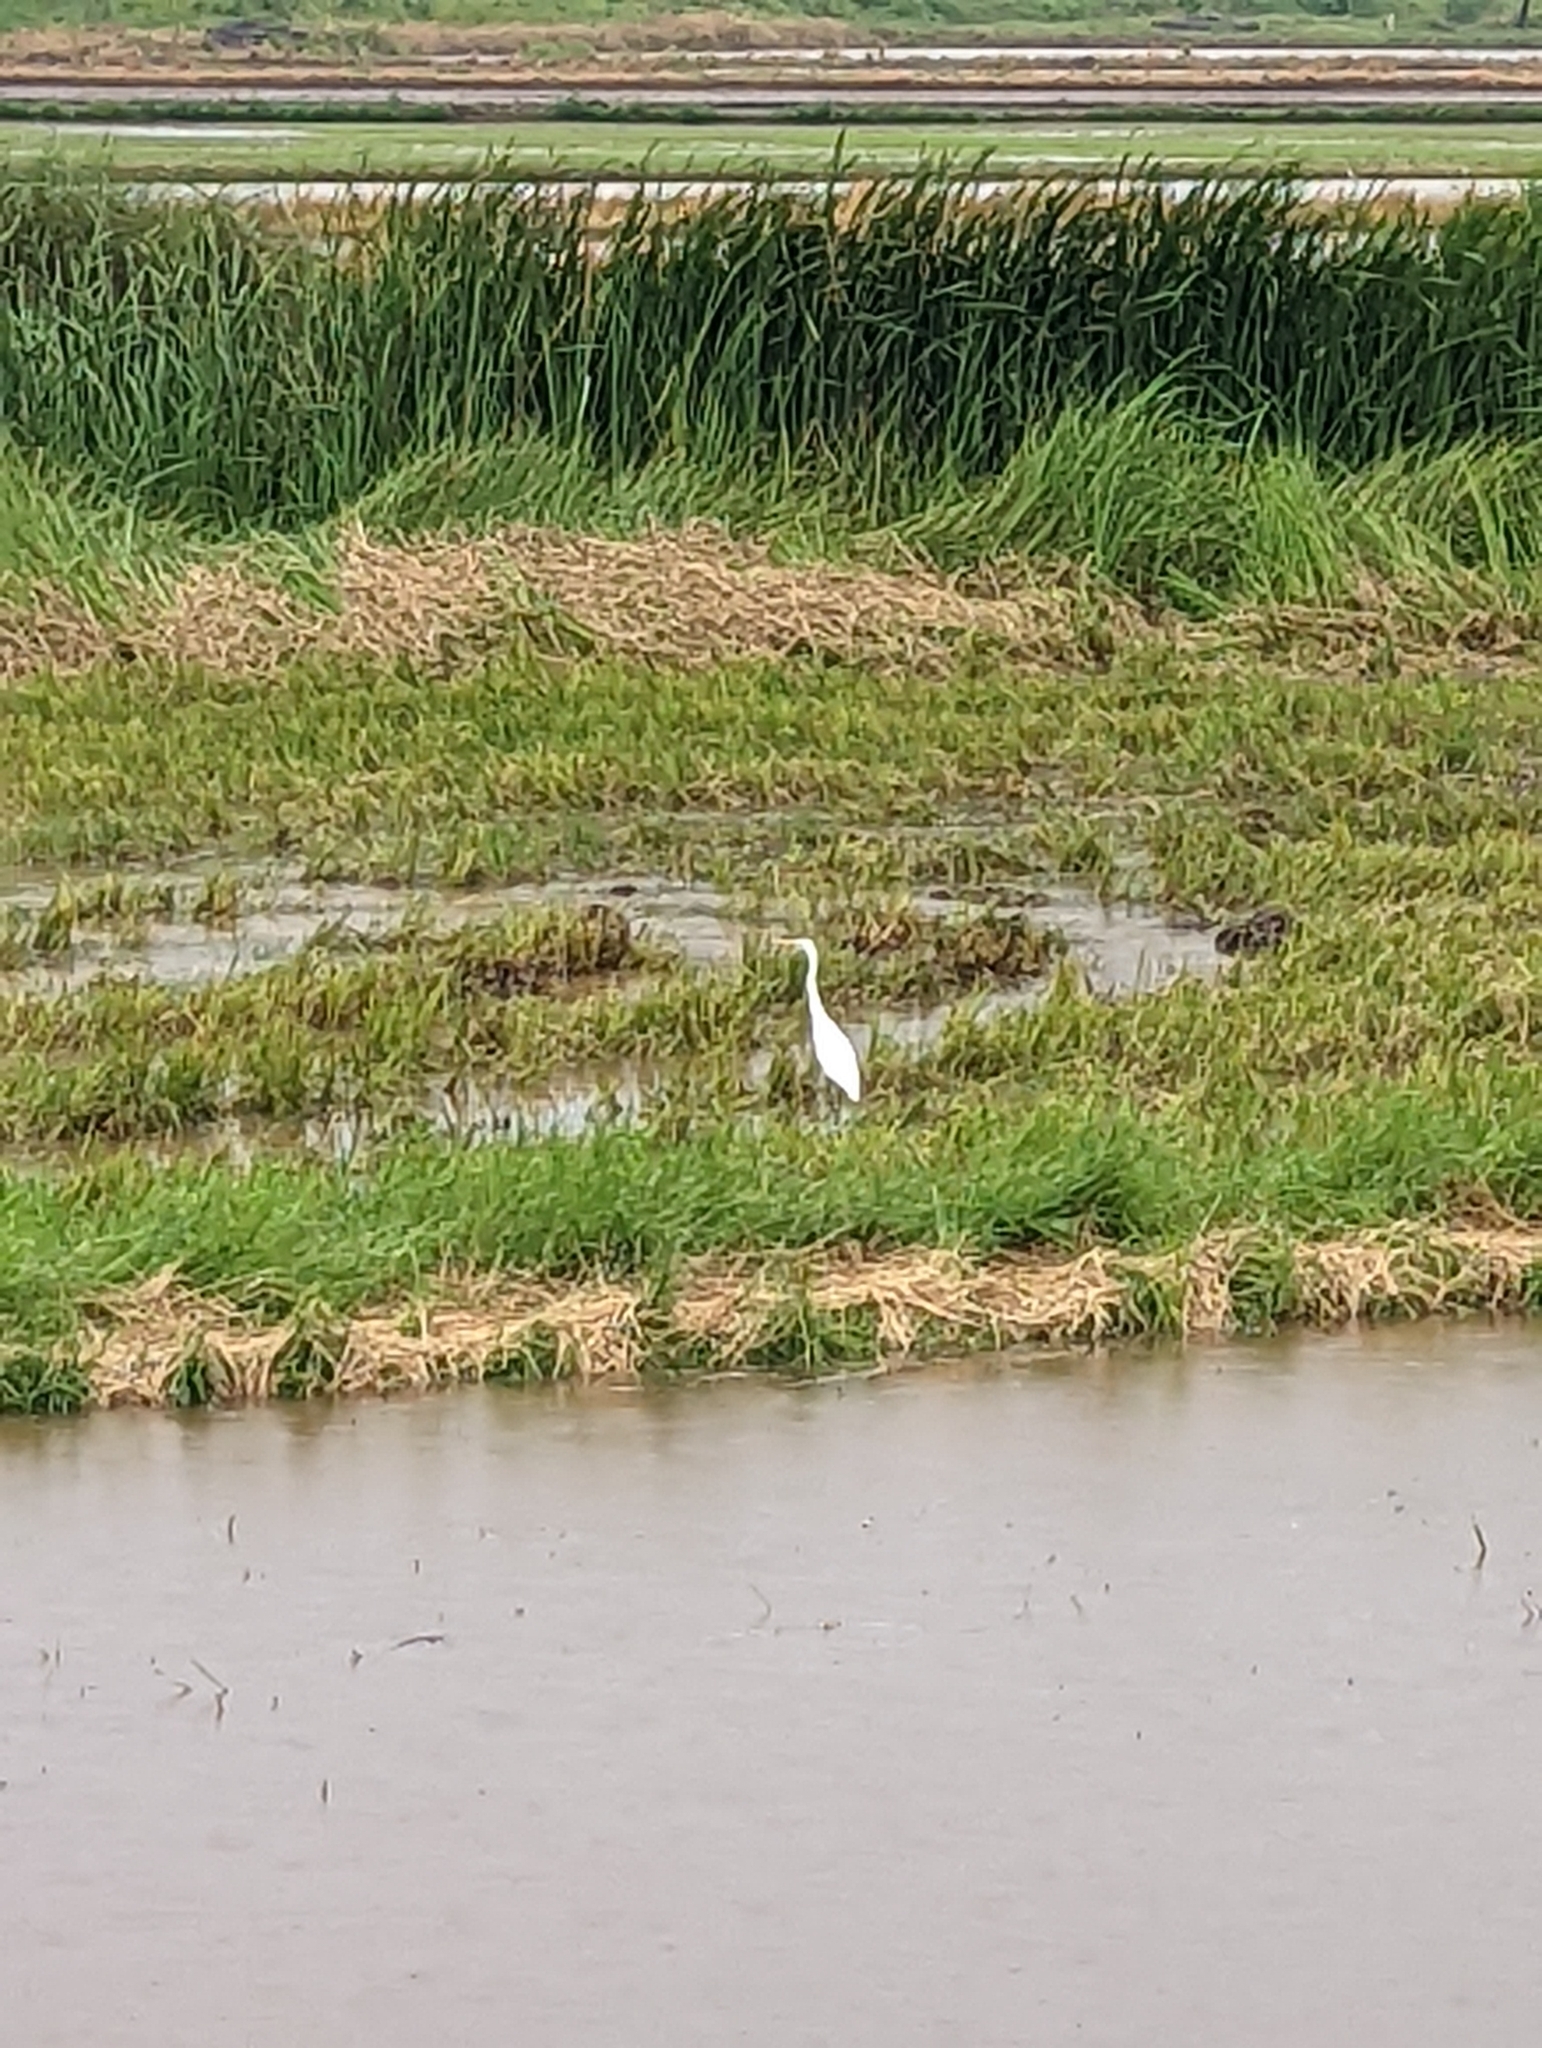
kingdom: Animalia
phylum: Chordata
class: Aves
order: Pelecaniformes
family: Ardeidae
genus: Egretta
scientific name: Egretta intermedia
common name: Intermediate egret
